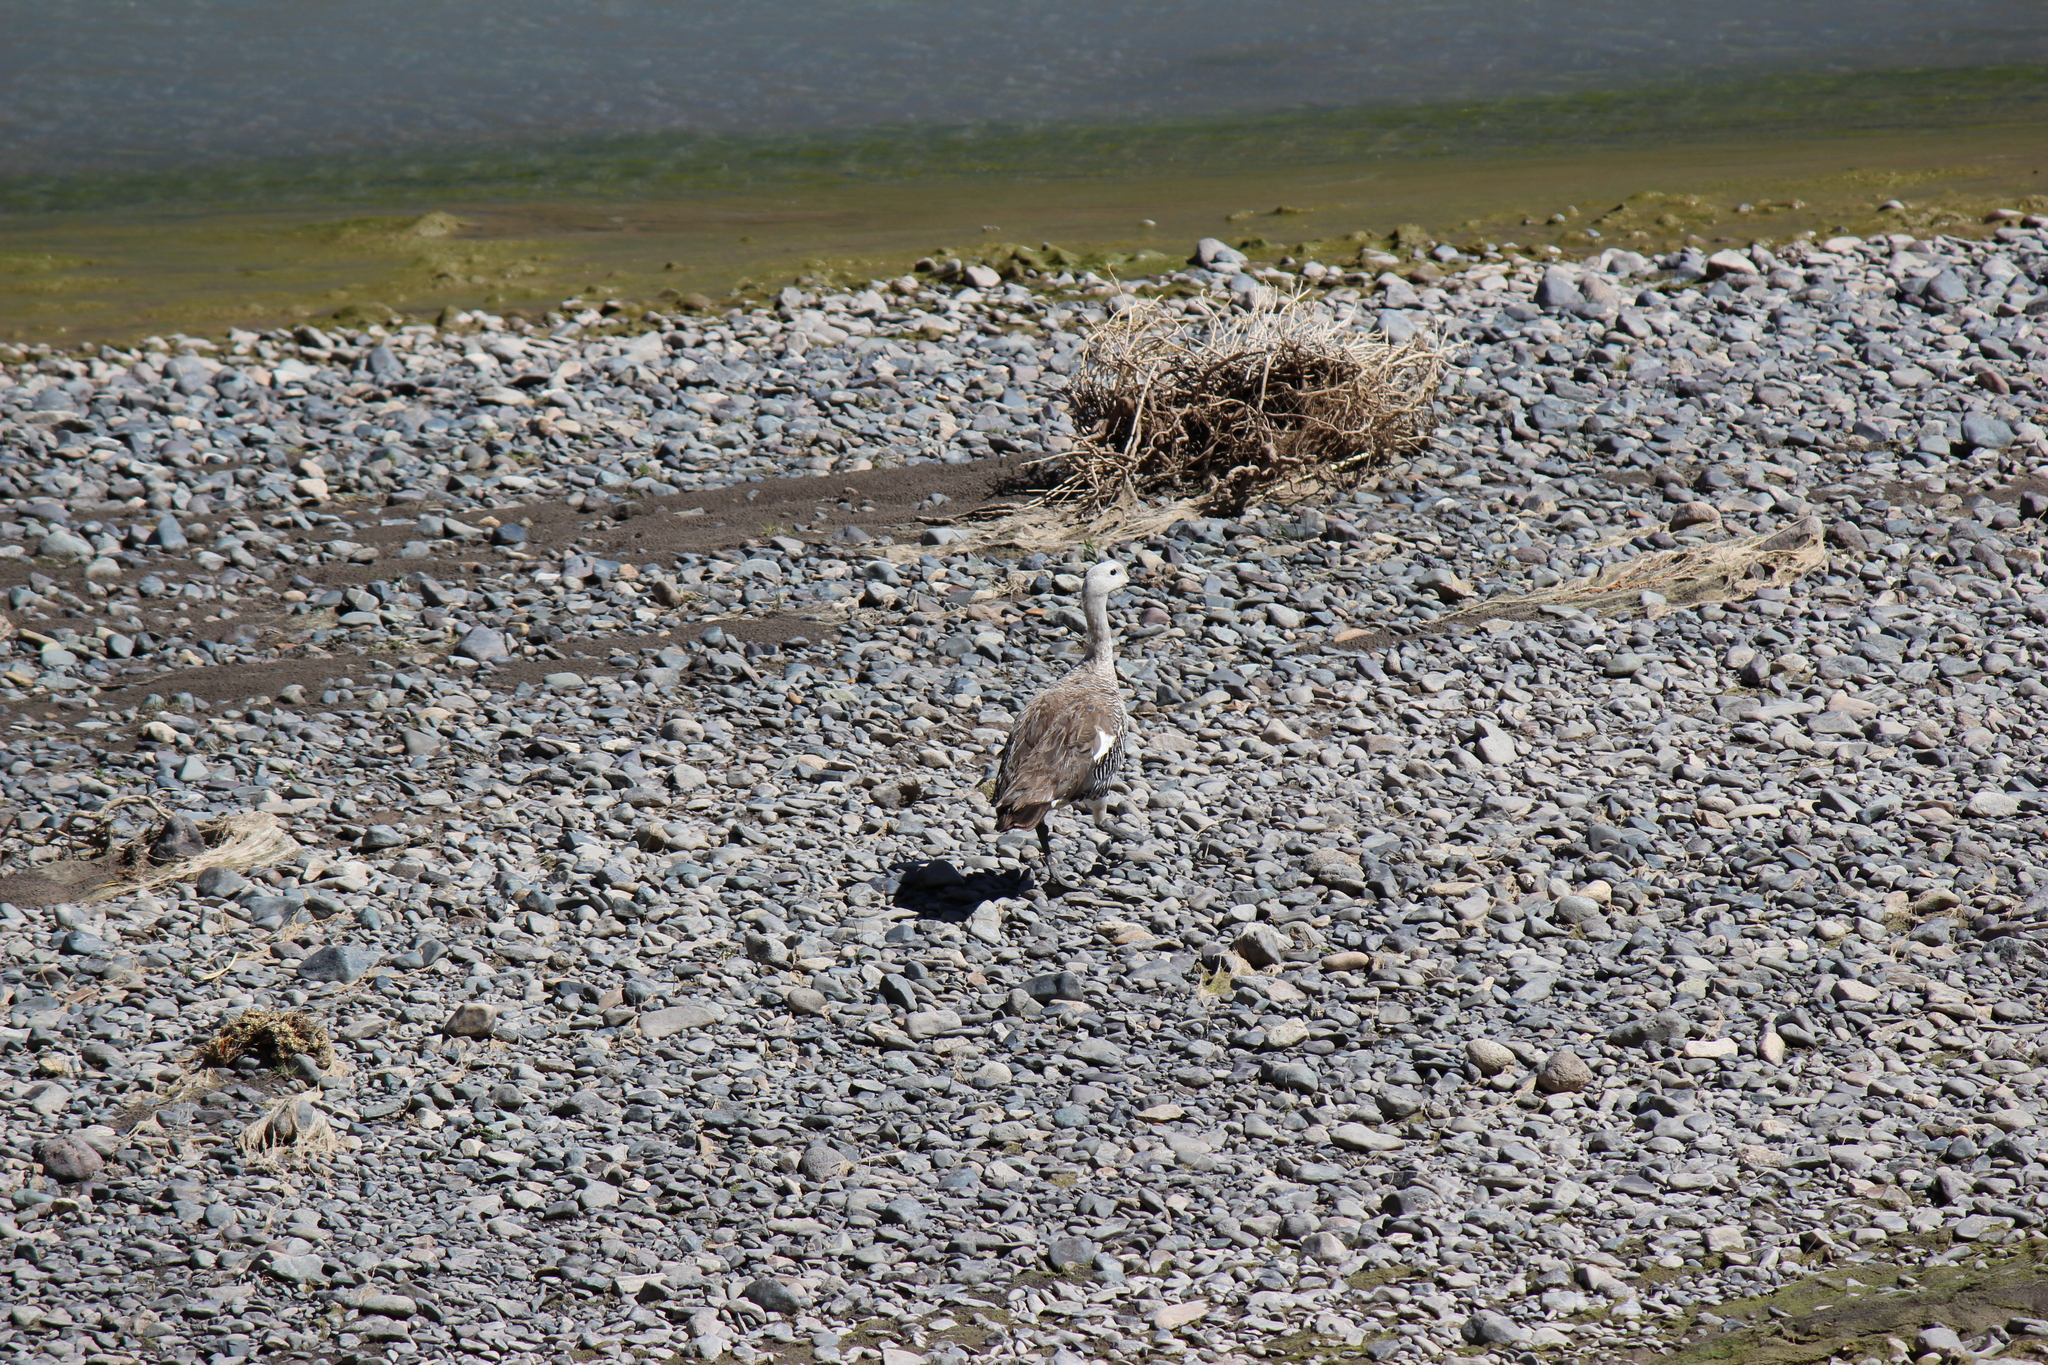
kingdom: Animalia
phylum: Chordata
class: Aves
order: Anseriformes
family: Anatidae
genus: Chloephaga
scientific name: Chloephaga picta
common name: Upland goose
